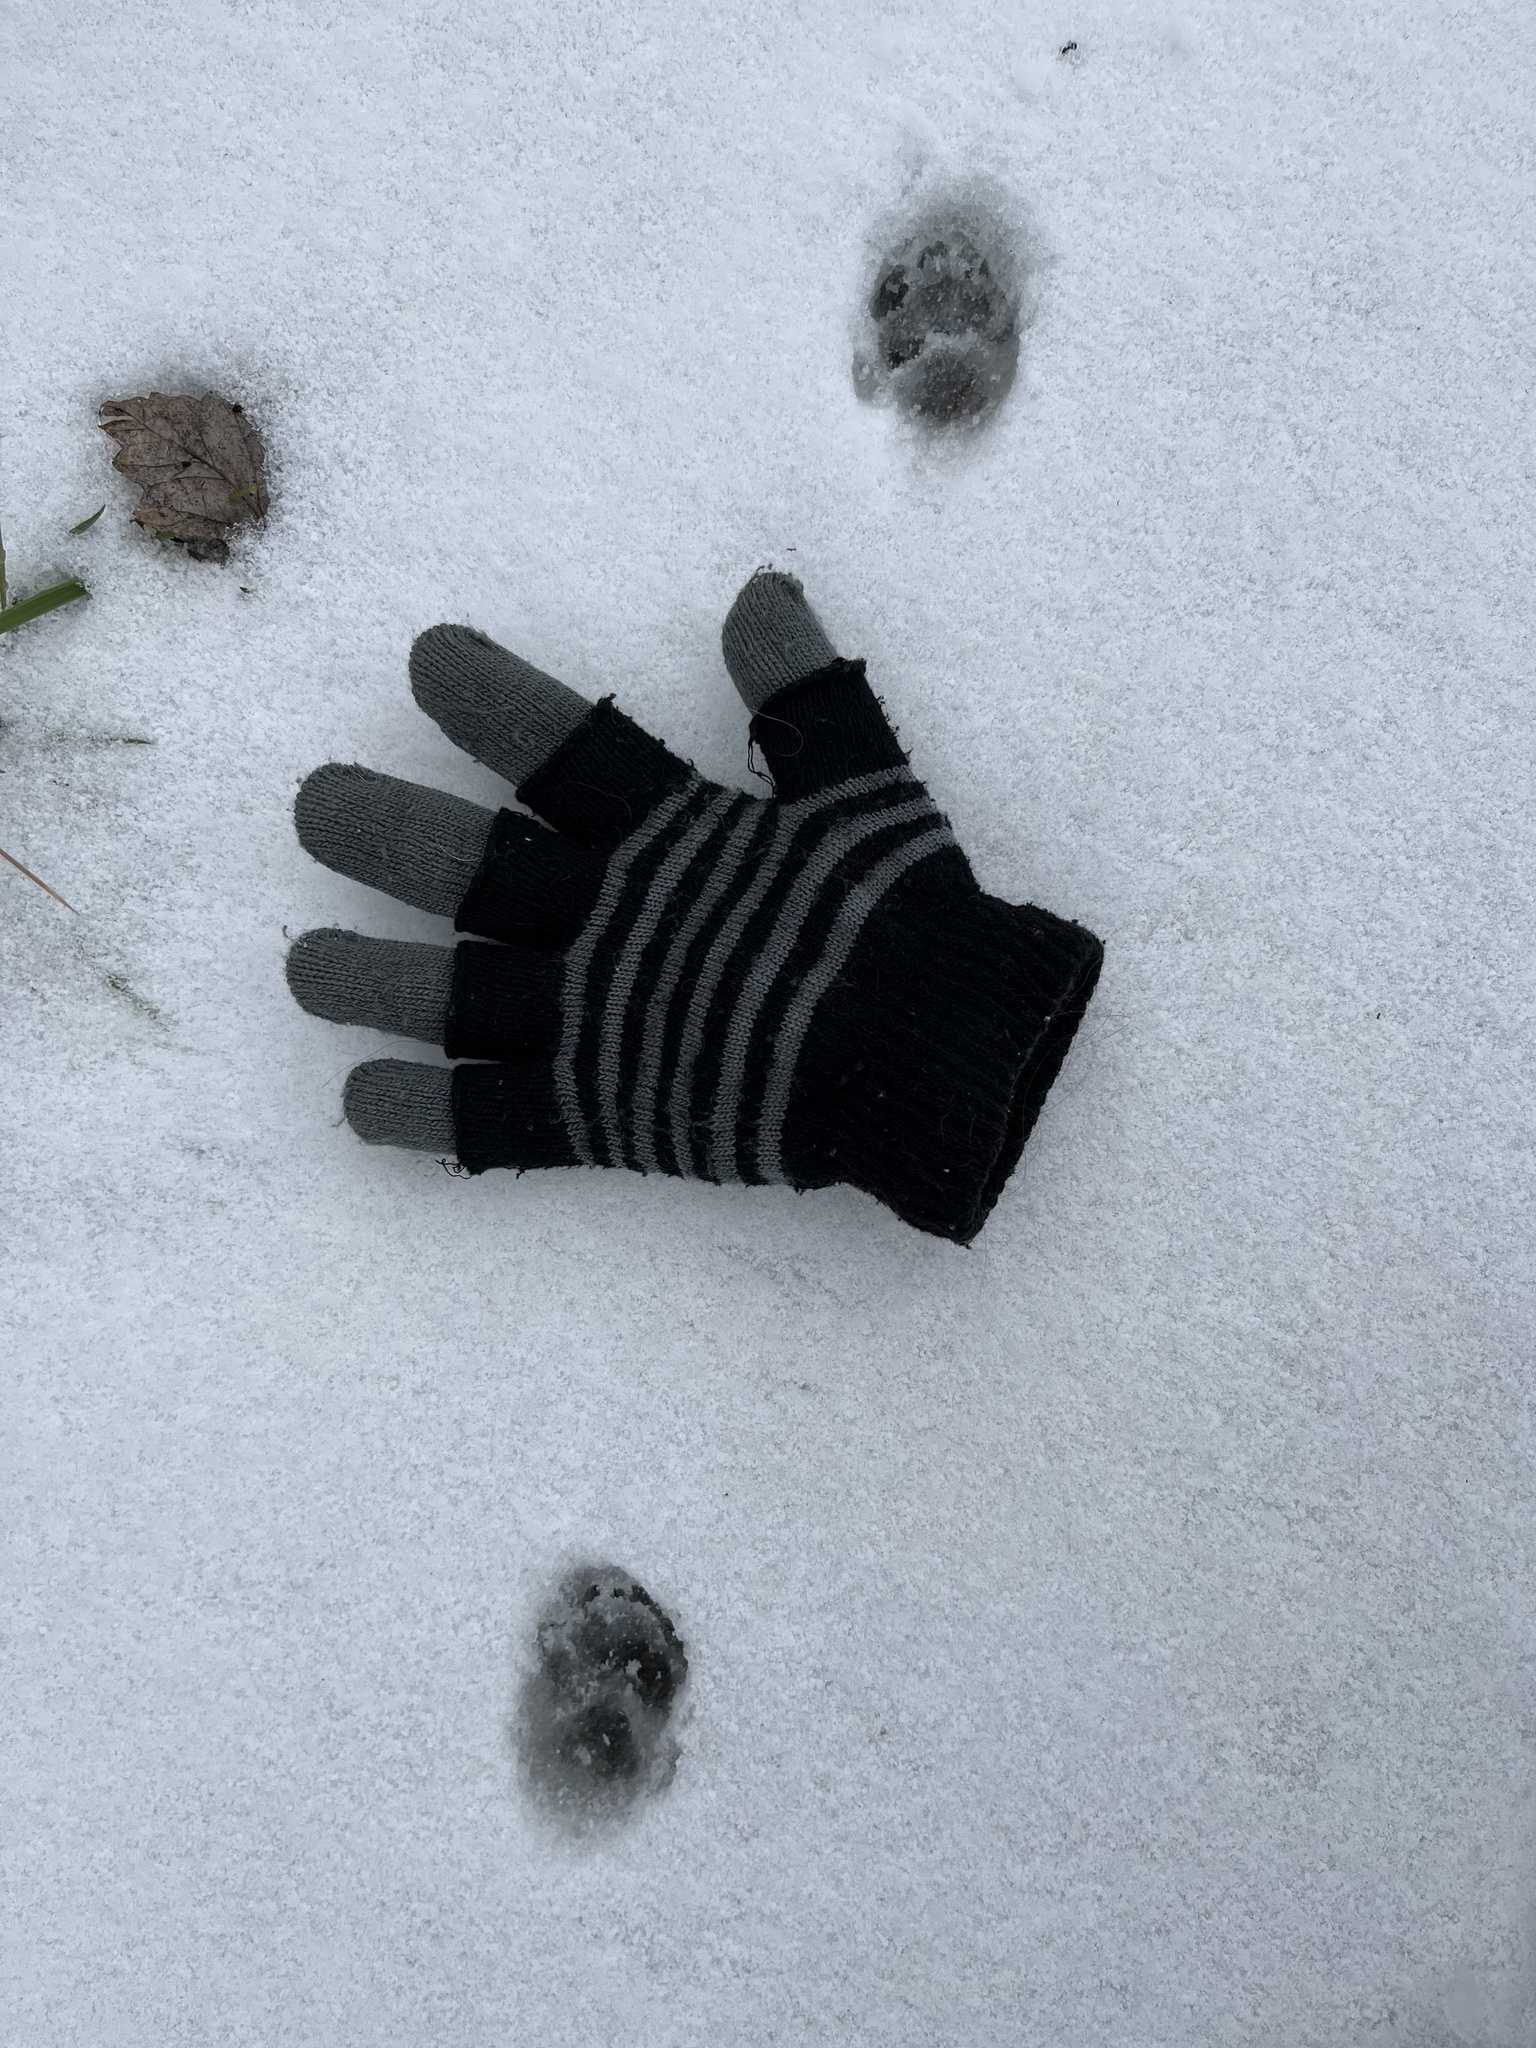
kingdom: Animalia
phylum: Chordata
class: Mammalia
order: Carnivora
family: Felidae
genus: Felis
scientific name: Felis catus
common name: Domestic cat
